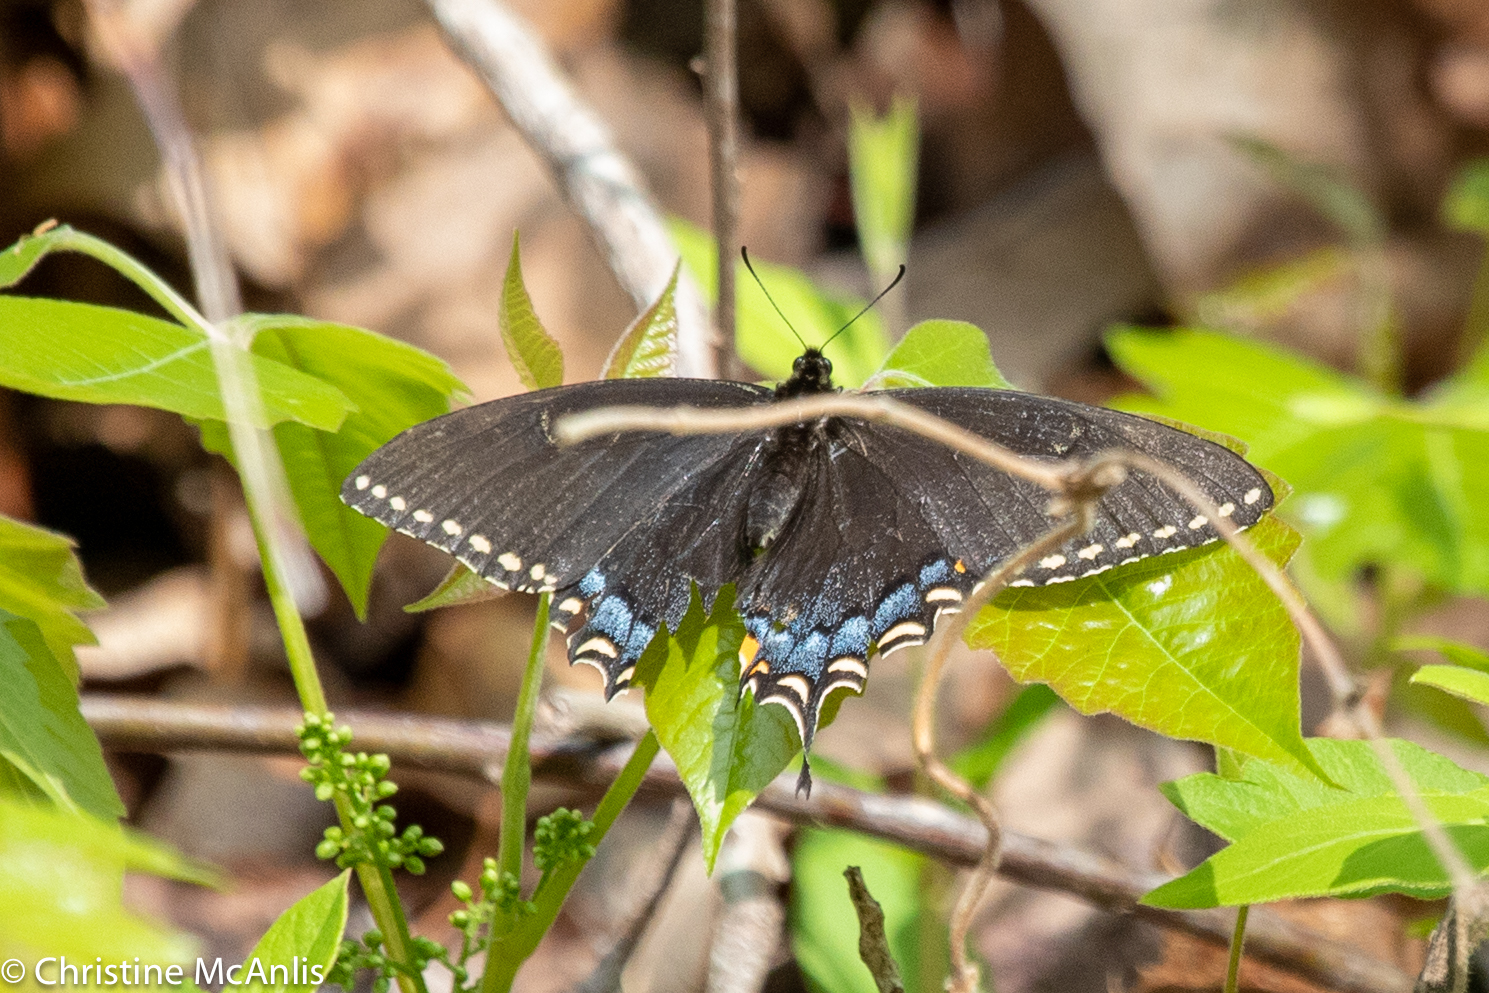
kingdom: Animalia
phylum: Arthropoda
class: Insecta
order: Lepidoptera
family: Papilionidae
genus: Papilio
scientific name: Papilio glaucus
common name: Tiger swallowtail
